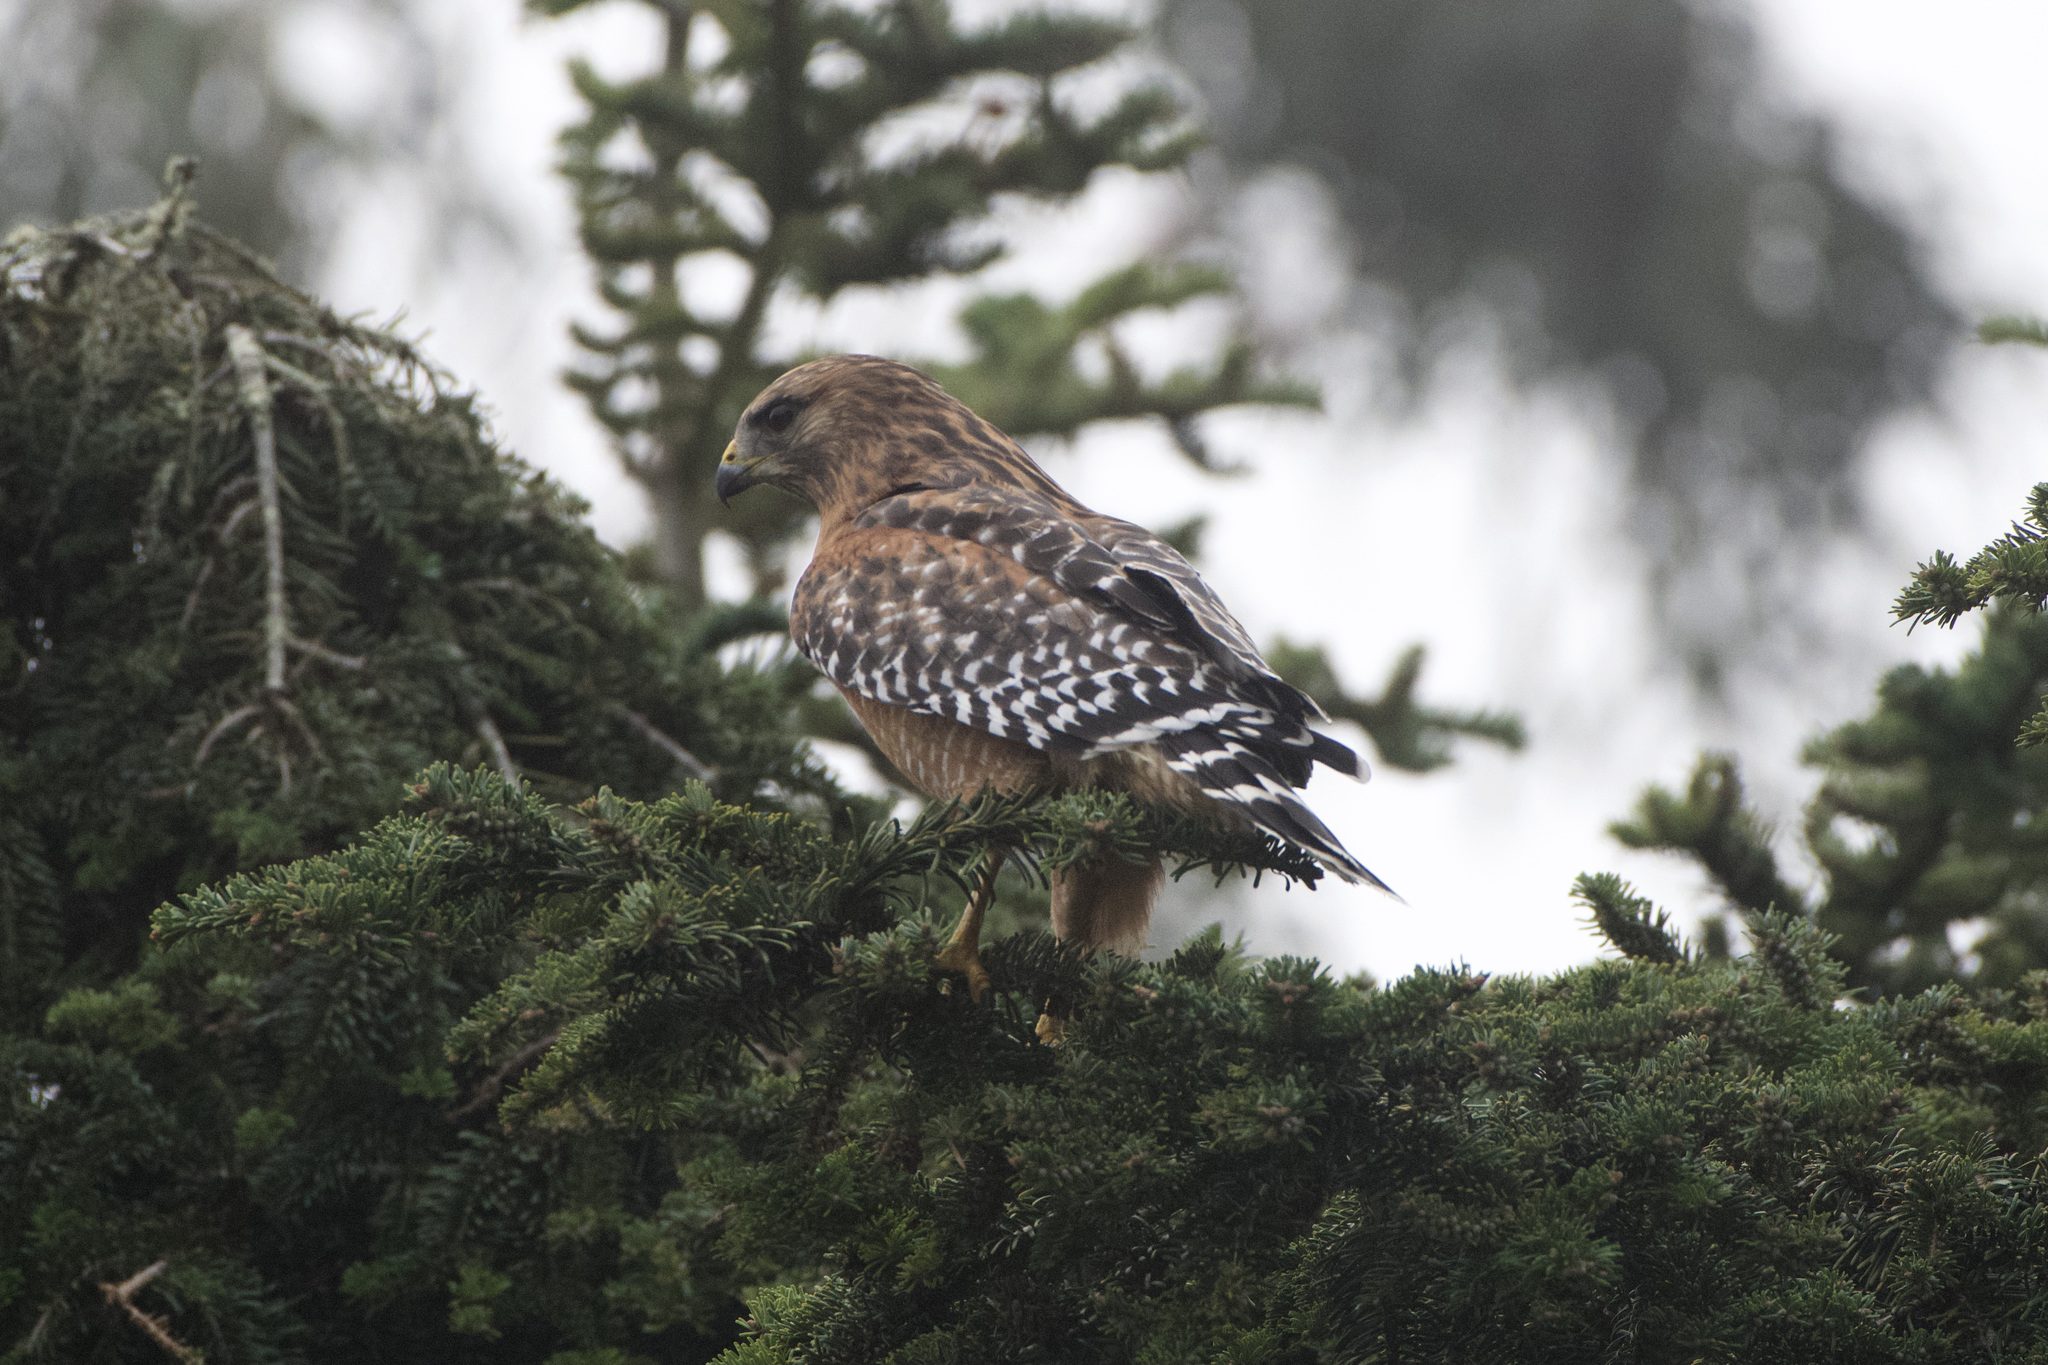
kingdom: Animalia
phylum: Chordata
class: Aves
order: Accipitriformes
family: Accipitridae
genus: Buteo
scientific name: Buteo lineatus
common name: Red-shouldered hawk
